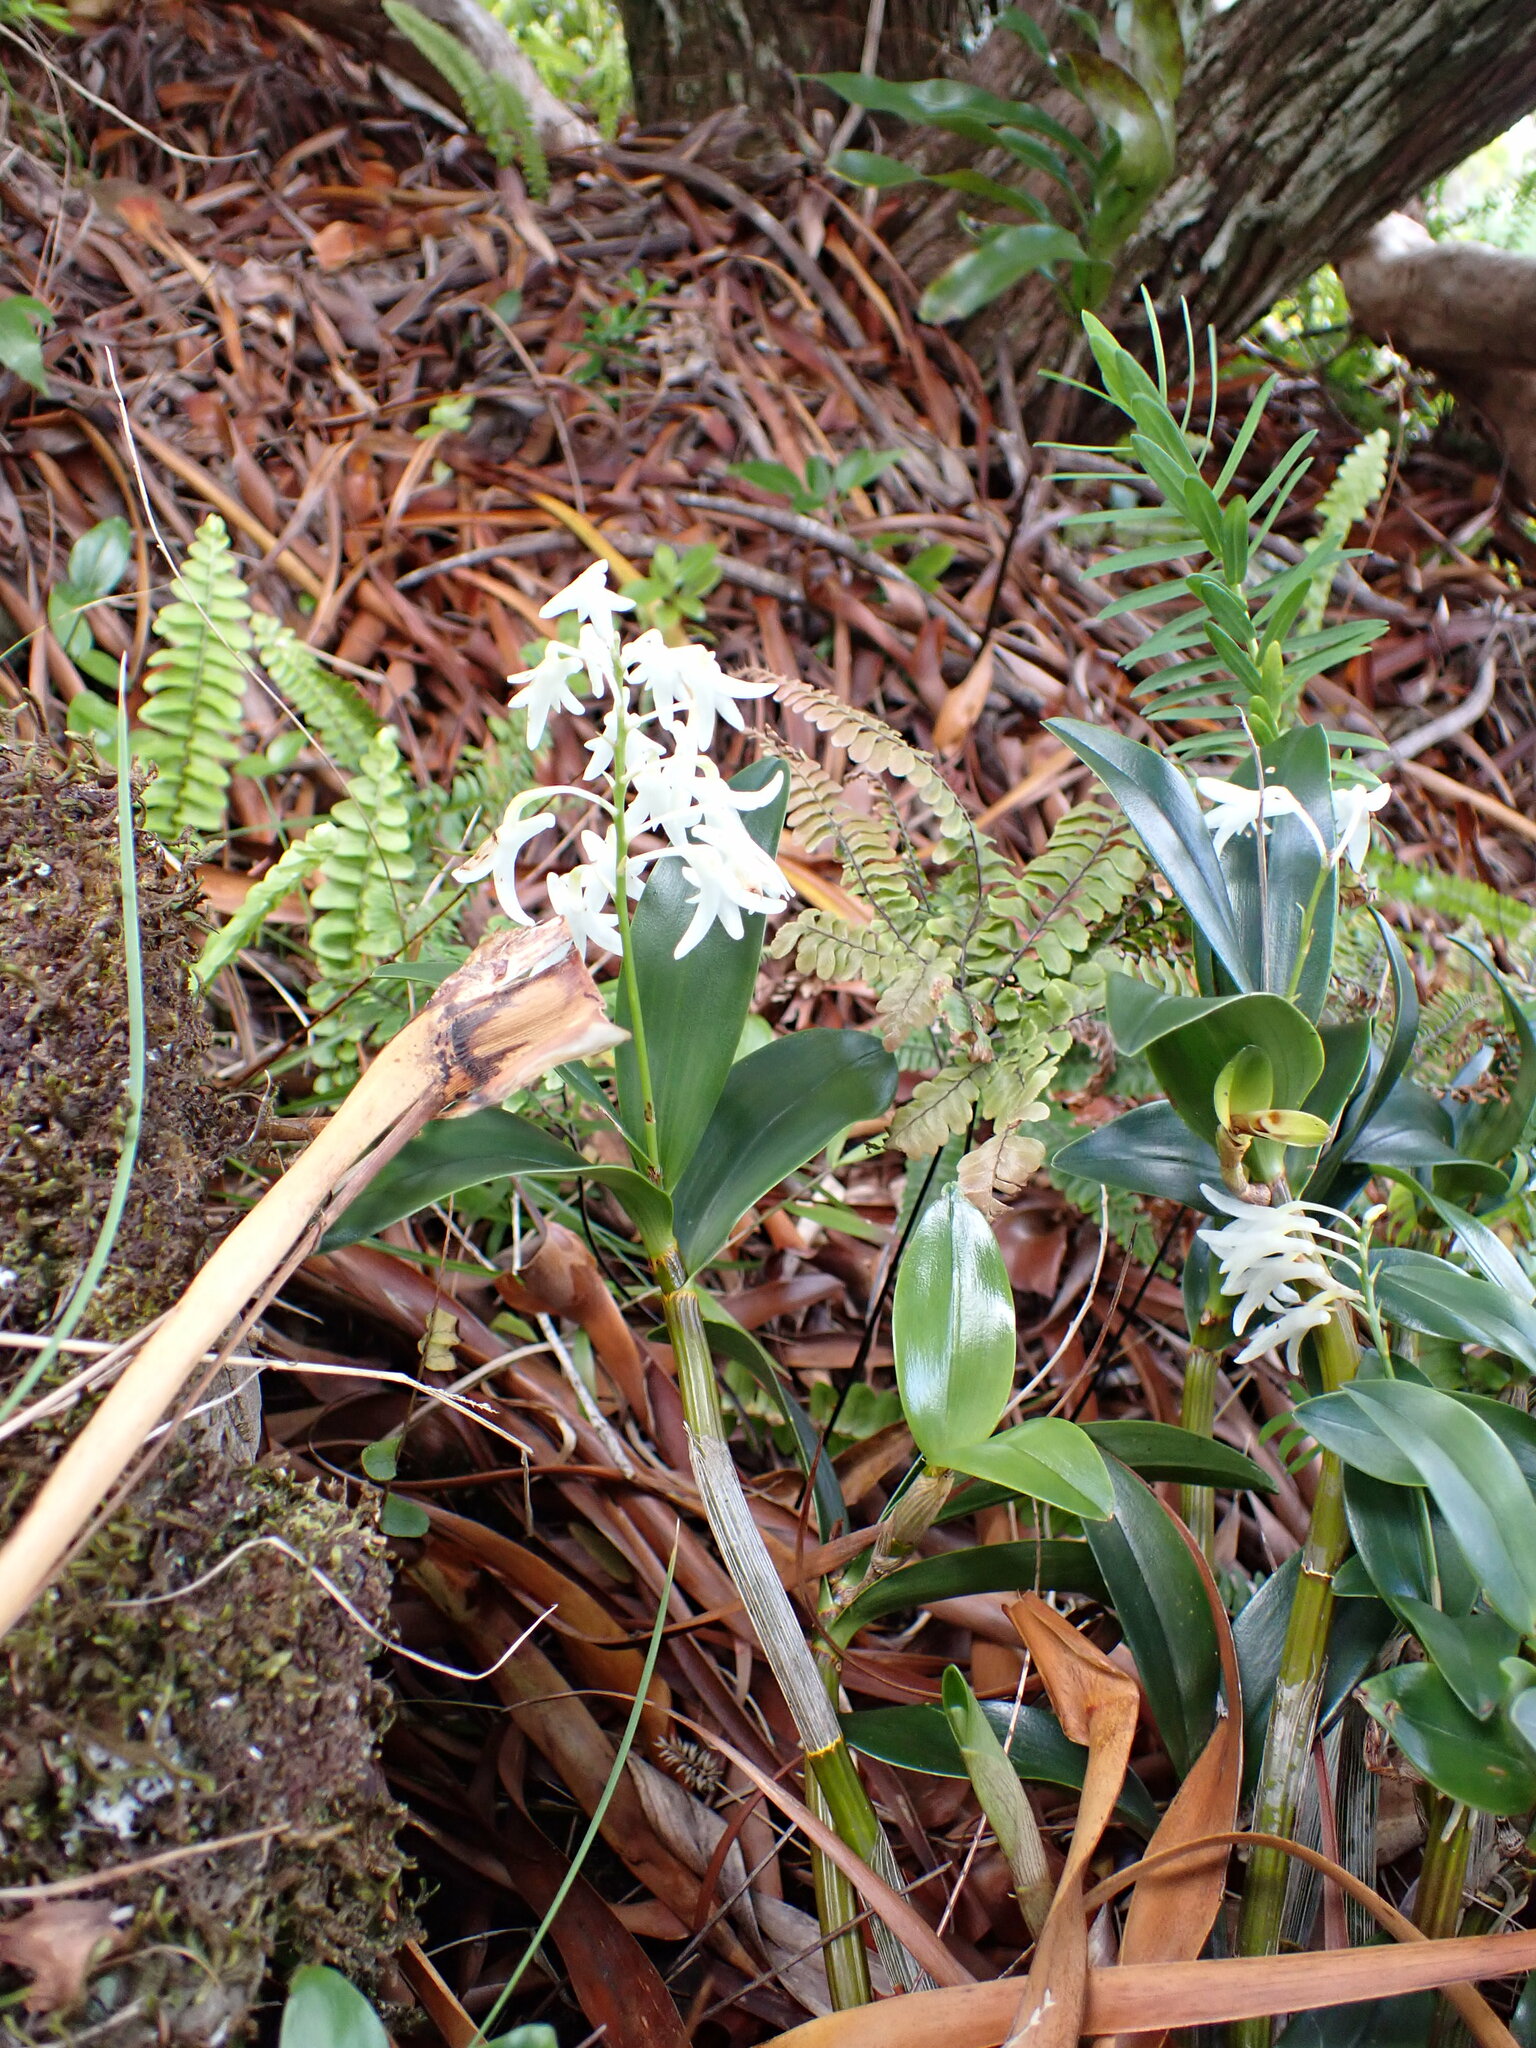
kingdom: Plantae
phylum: Tracheophyta
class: Liliopsida
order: Asparagales
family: Orchidaceae
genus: Dendrobium
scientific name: Dendrobium moorei
